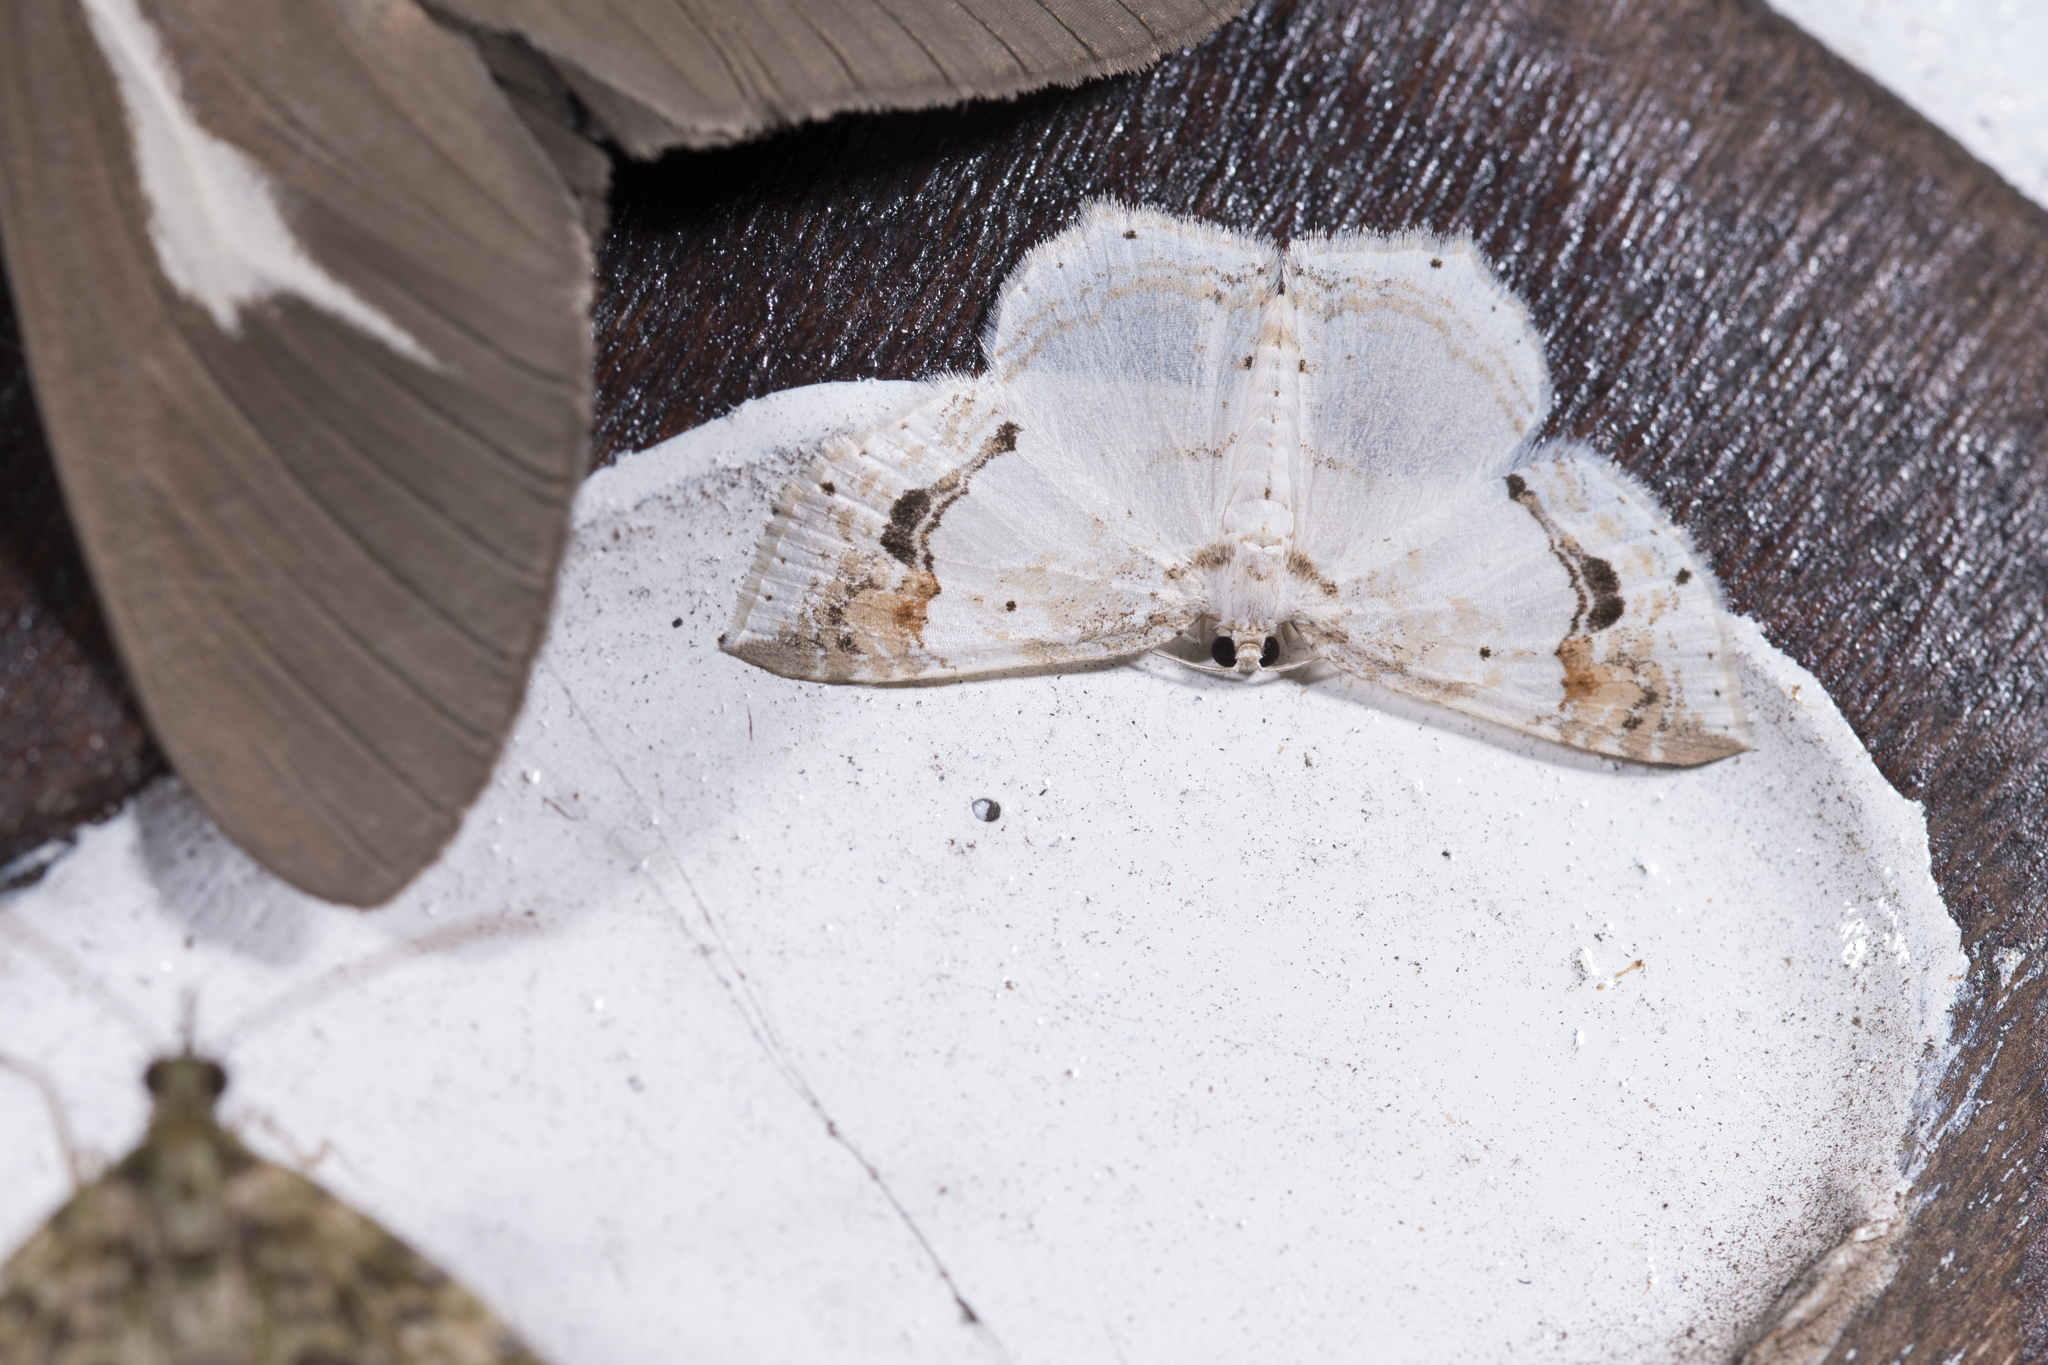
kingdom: Animalia
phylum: Arthropoda
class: Insecta
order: Lepidoptera
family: Geometridae
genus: Asthena
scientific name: Asthena undulata
